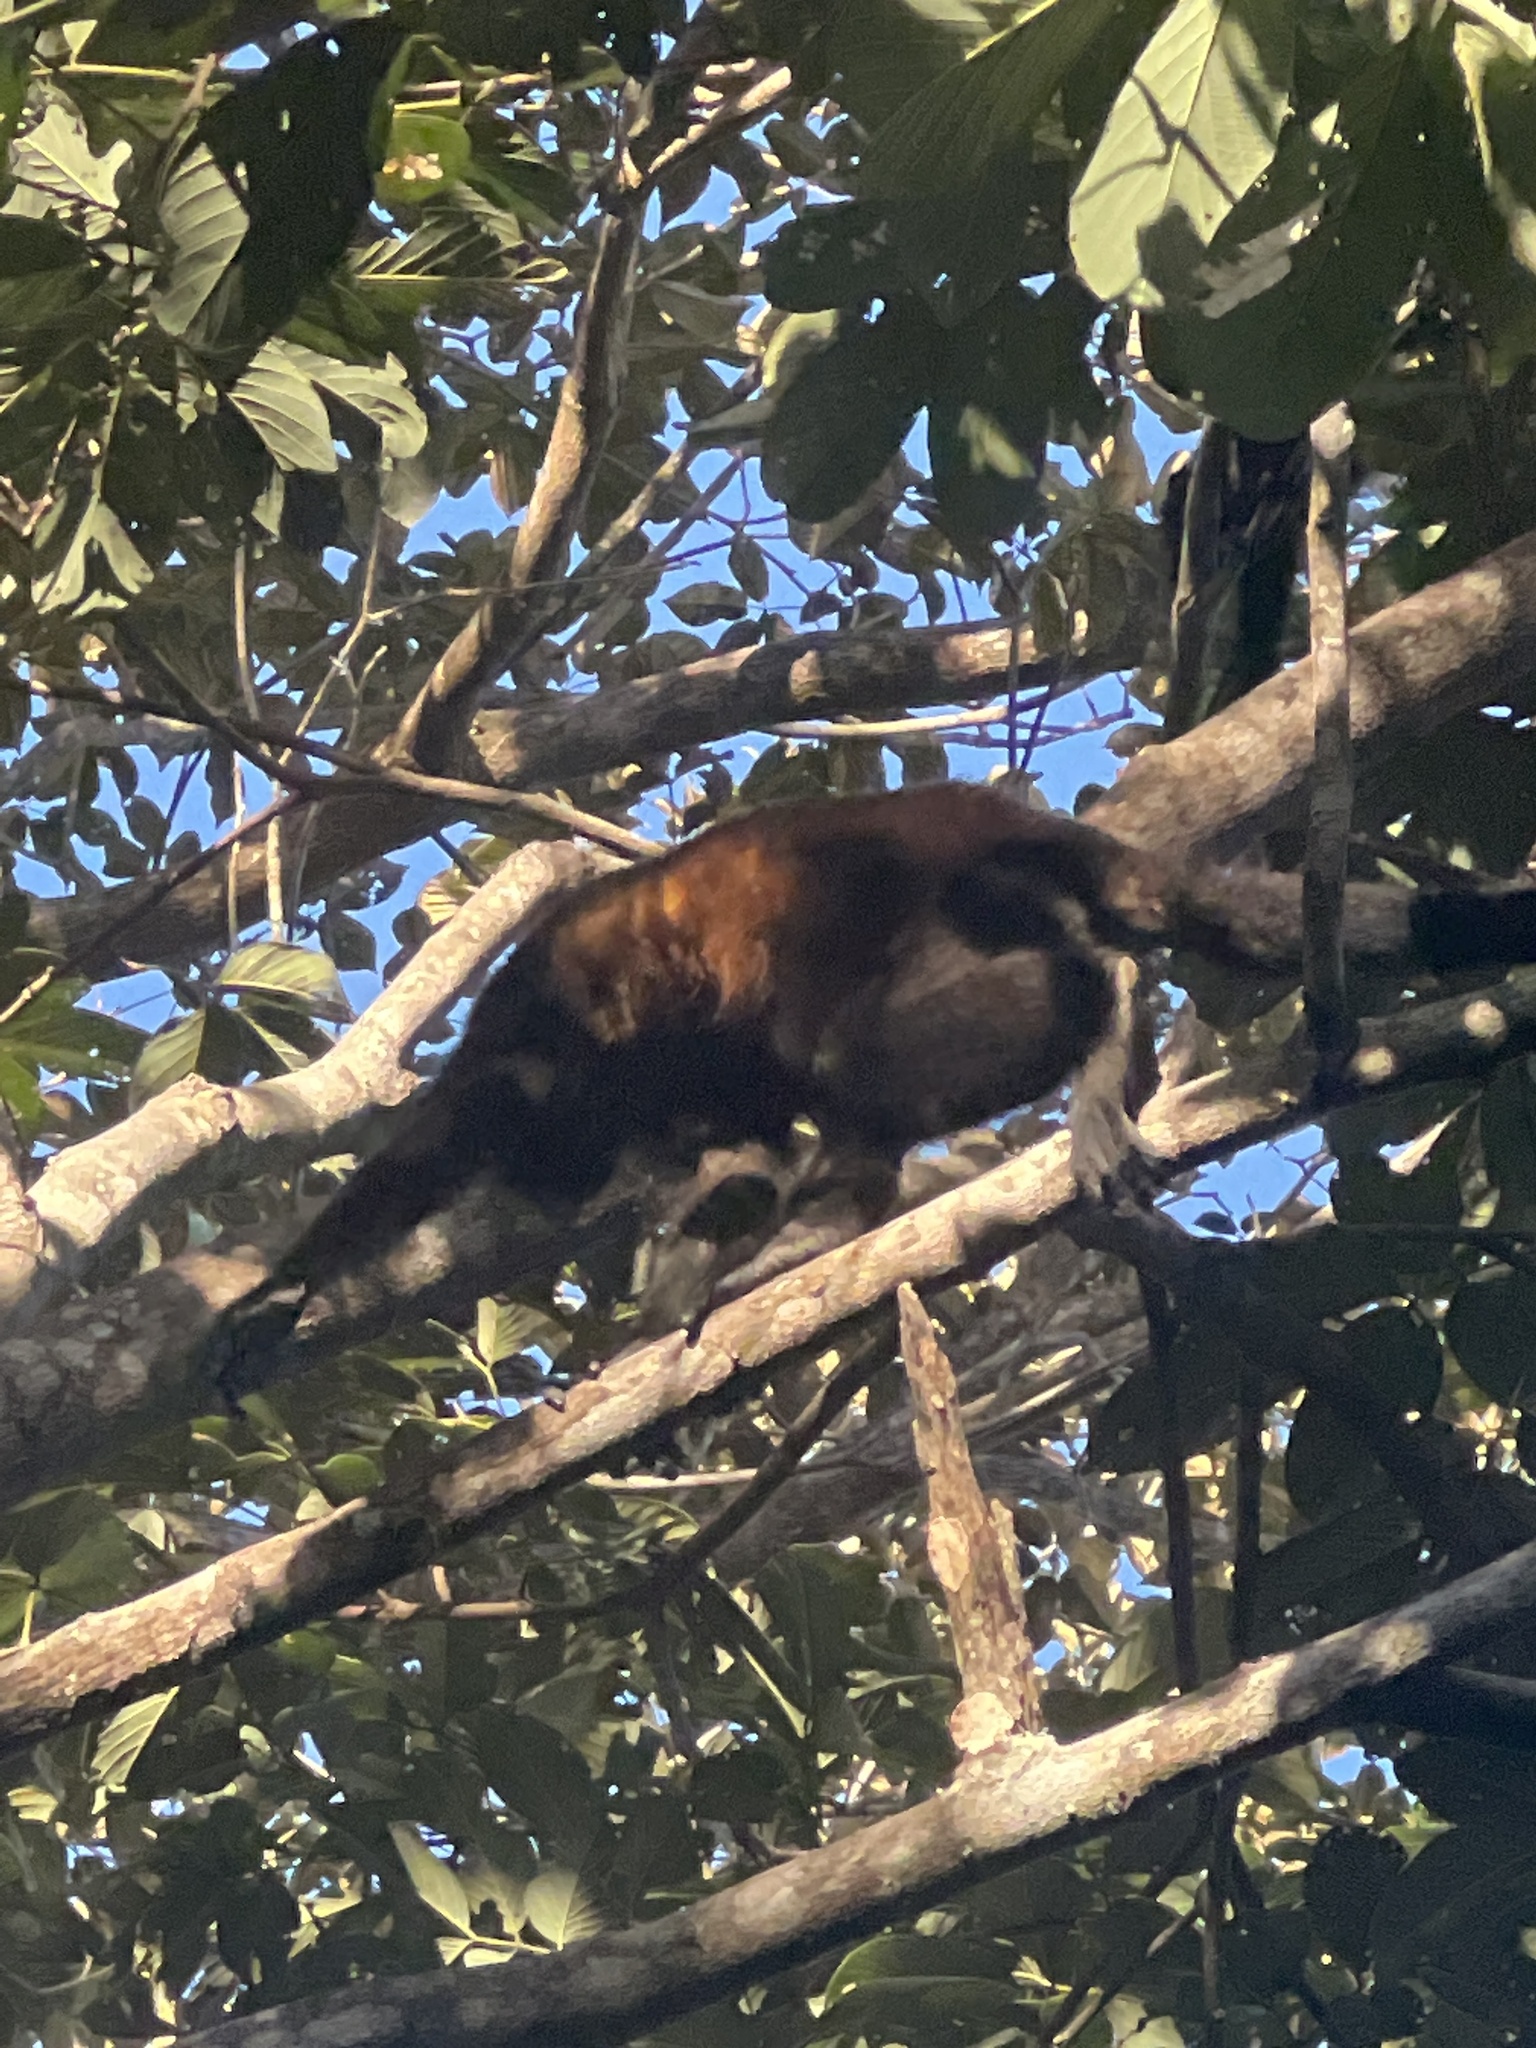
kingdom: Animalia
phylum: Chordata
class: Mammalia
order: Primates
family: Atelidae
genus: Alouatta
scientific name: Alouatta palliata
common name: Mantled howler
